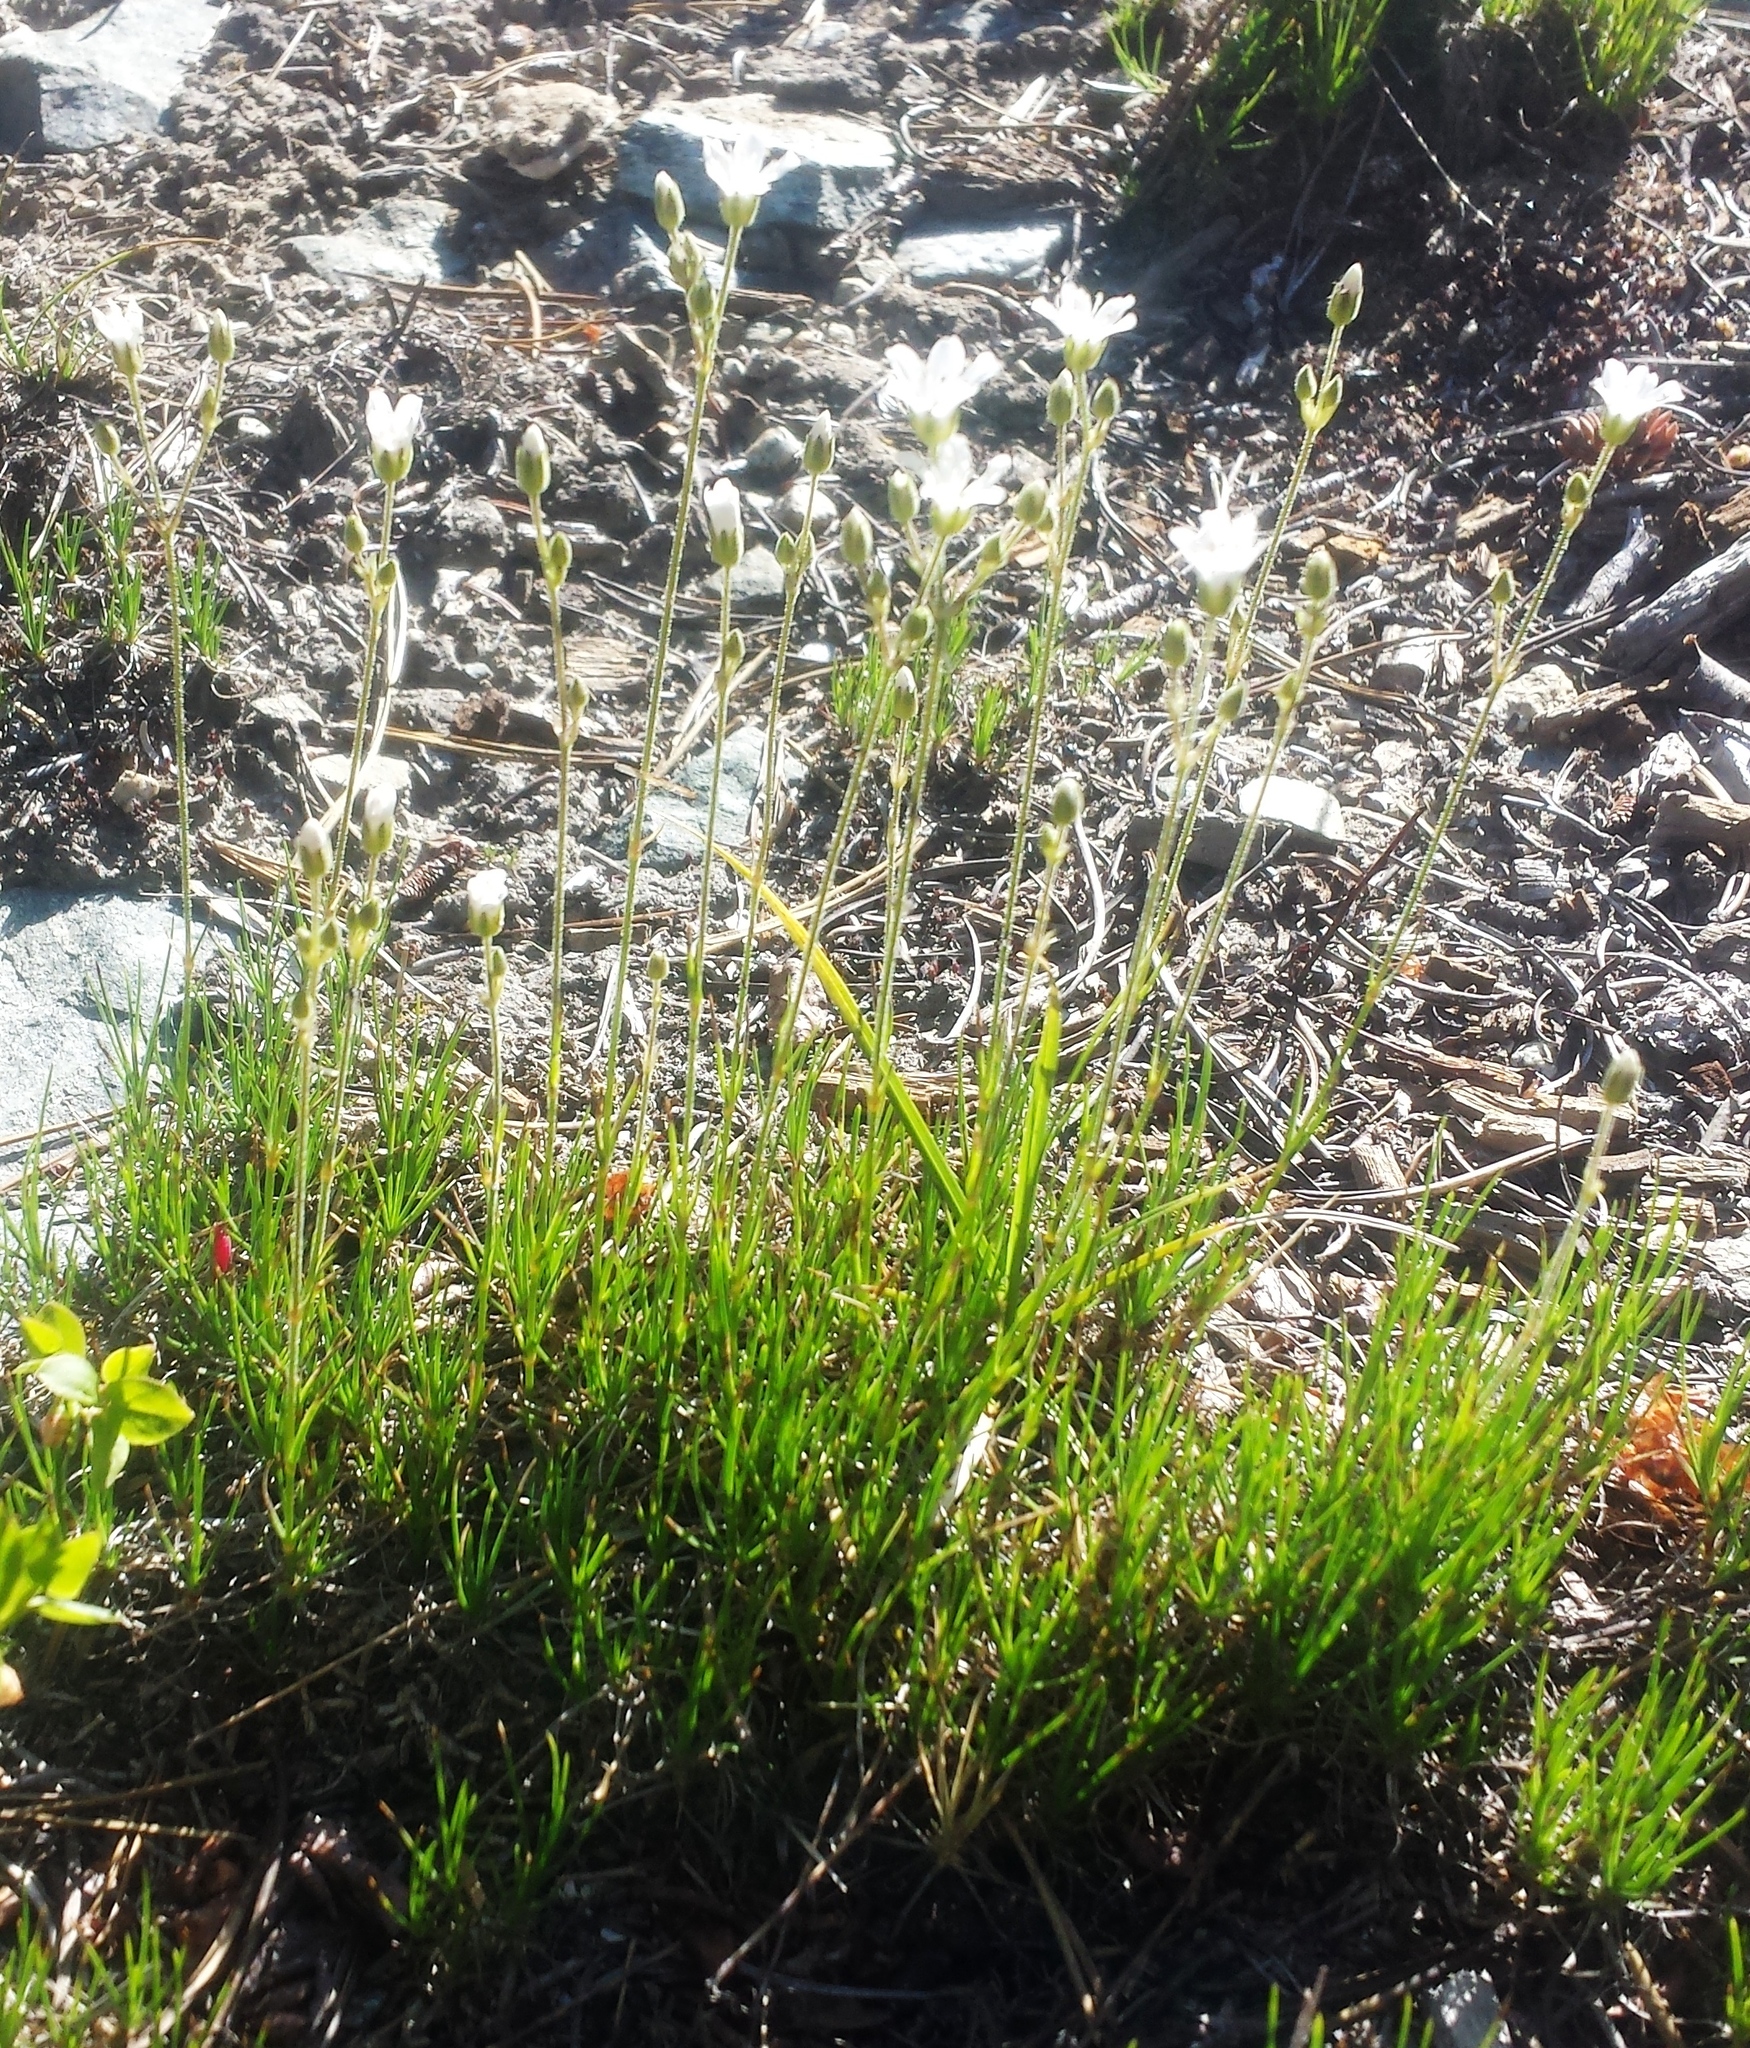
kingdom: Plantae
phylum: Tracheophyta
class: Magnoliopsida
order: Caryophyllales
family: Caryophyllaceae
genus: Eremogone
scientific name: Eremogone capillaris
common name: Slender mountain sandwort
